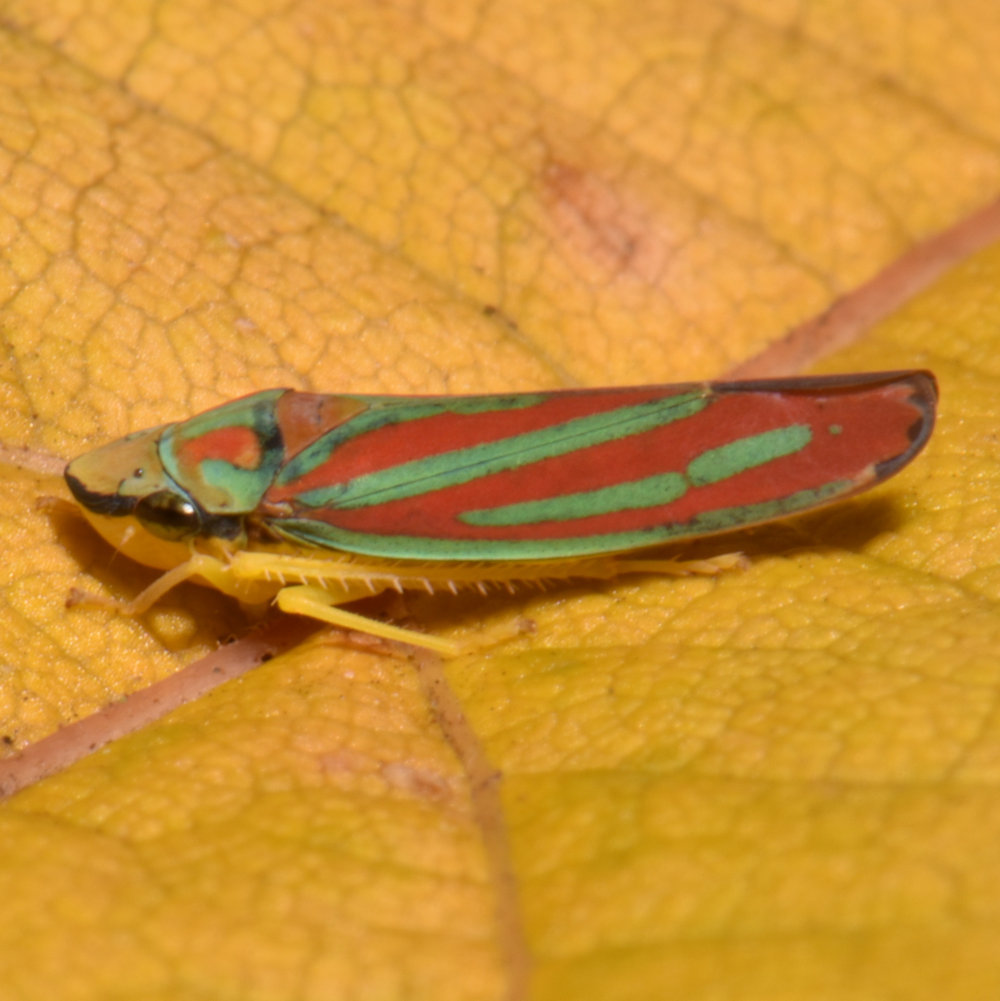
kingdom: Animalia
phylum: Arthropoda
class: Insecta
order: Hemiptera
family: Cicadellidae
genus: Graphocephala
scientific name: Graphocephala coccinea
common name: Candy-striped leafhopper
